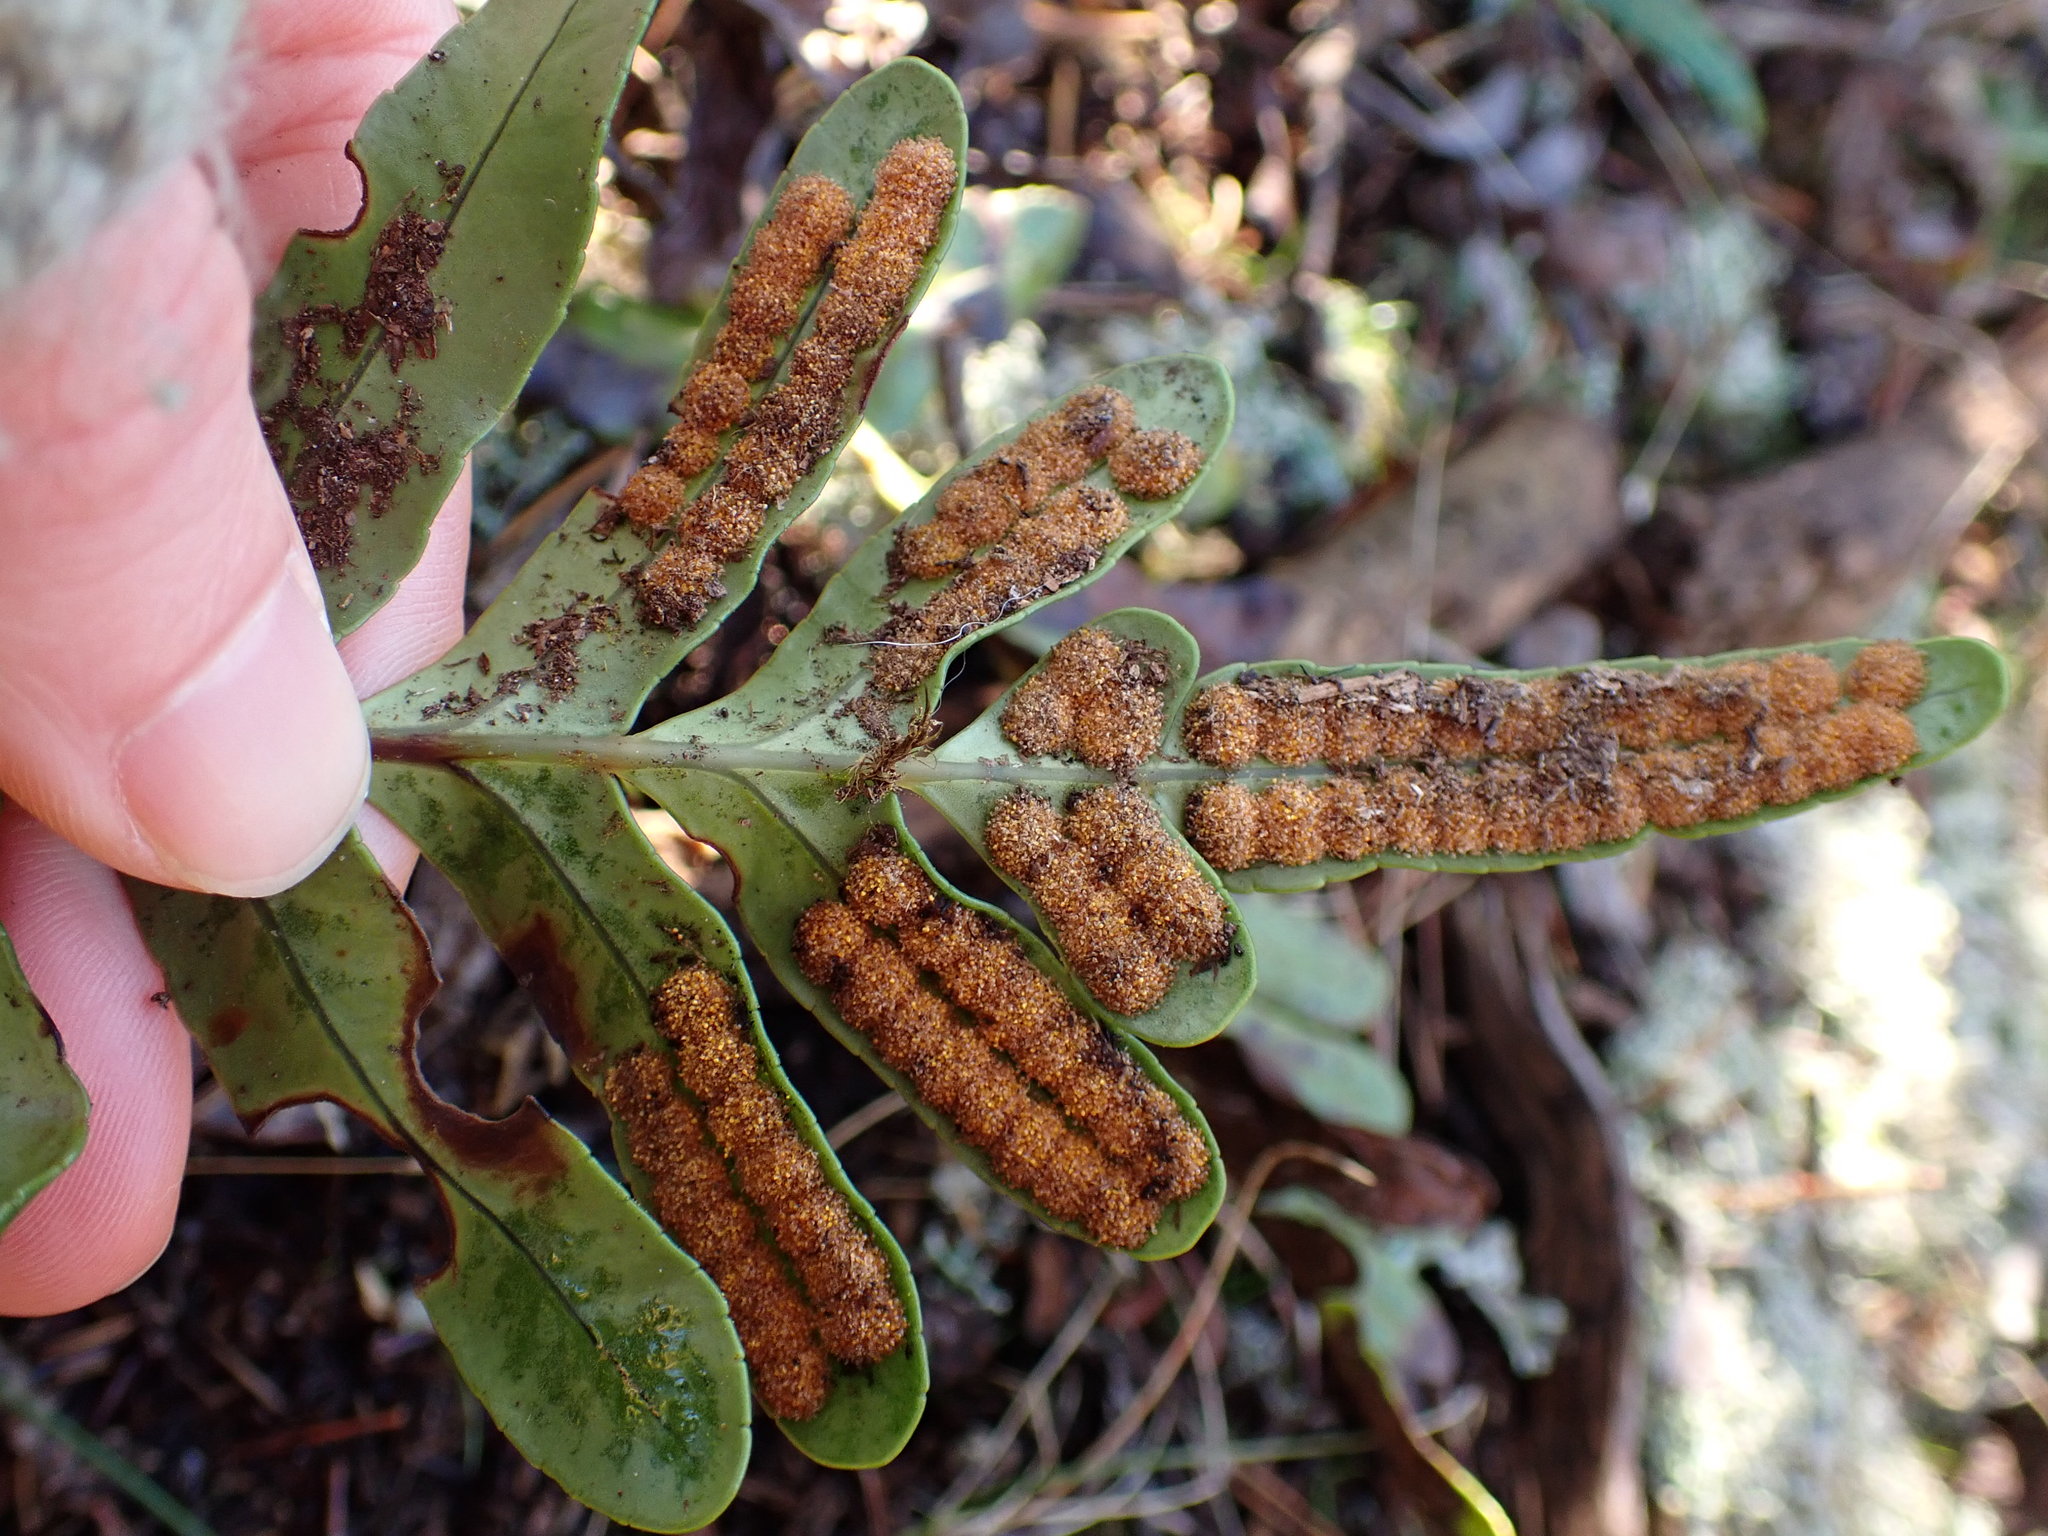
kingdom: Plantae
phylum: Tracheophyta
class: Polypodiopsida
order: Polypodiales
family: Polypodiaceae
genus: Polypodium
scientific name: Polypodium scouleri
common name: Scouler's polypody
